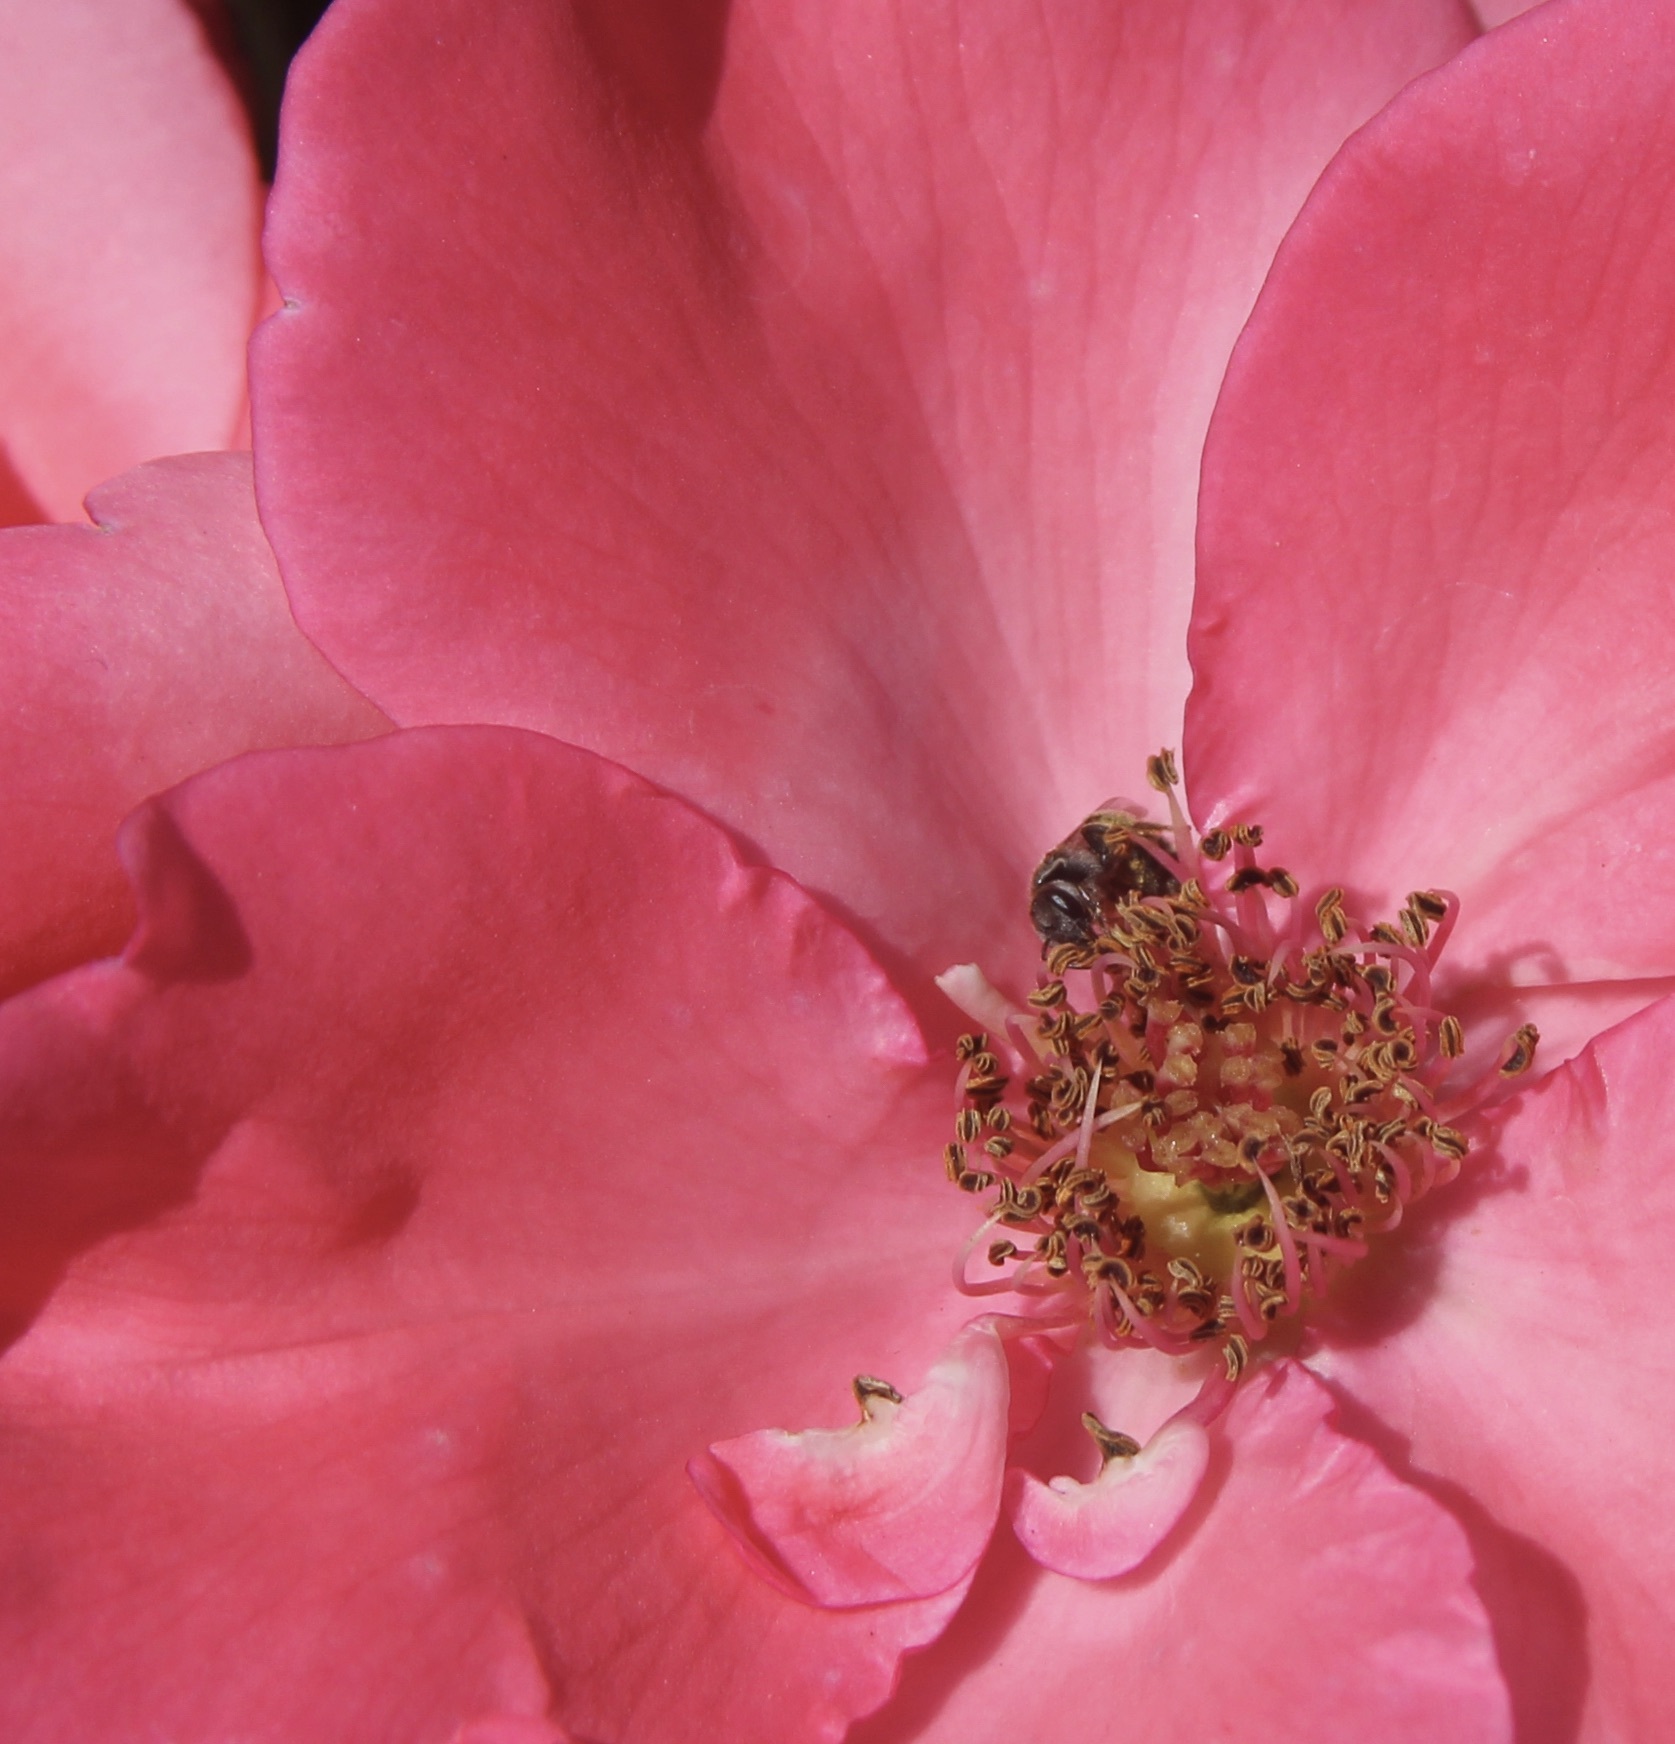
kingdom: Animalia
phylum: Arthropoda
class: Insecta
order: Hymenoptera
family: Halictidae
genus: Halictus
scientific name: Halictus tripartitus
